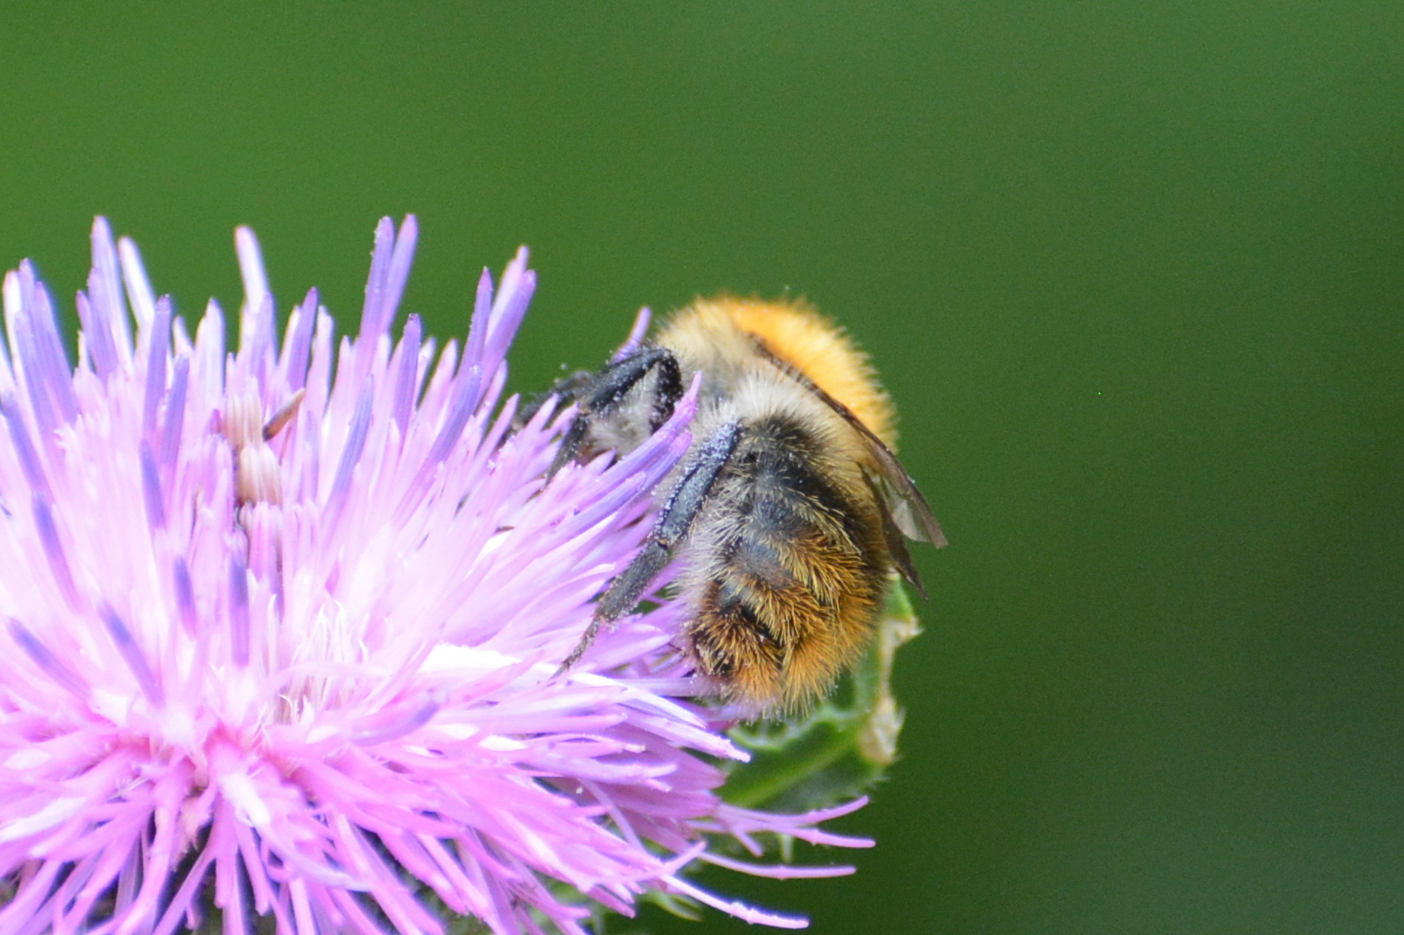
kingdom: Animalia
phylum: Arthropoda
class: Insecta
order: Hymenoptera
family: Apidae
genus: Bombus
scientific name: Bombus pascuorum
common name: Common carder bee
